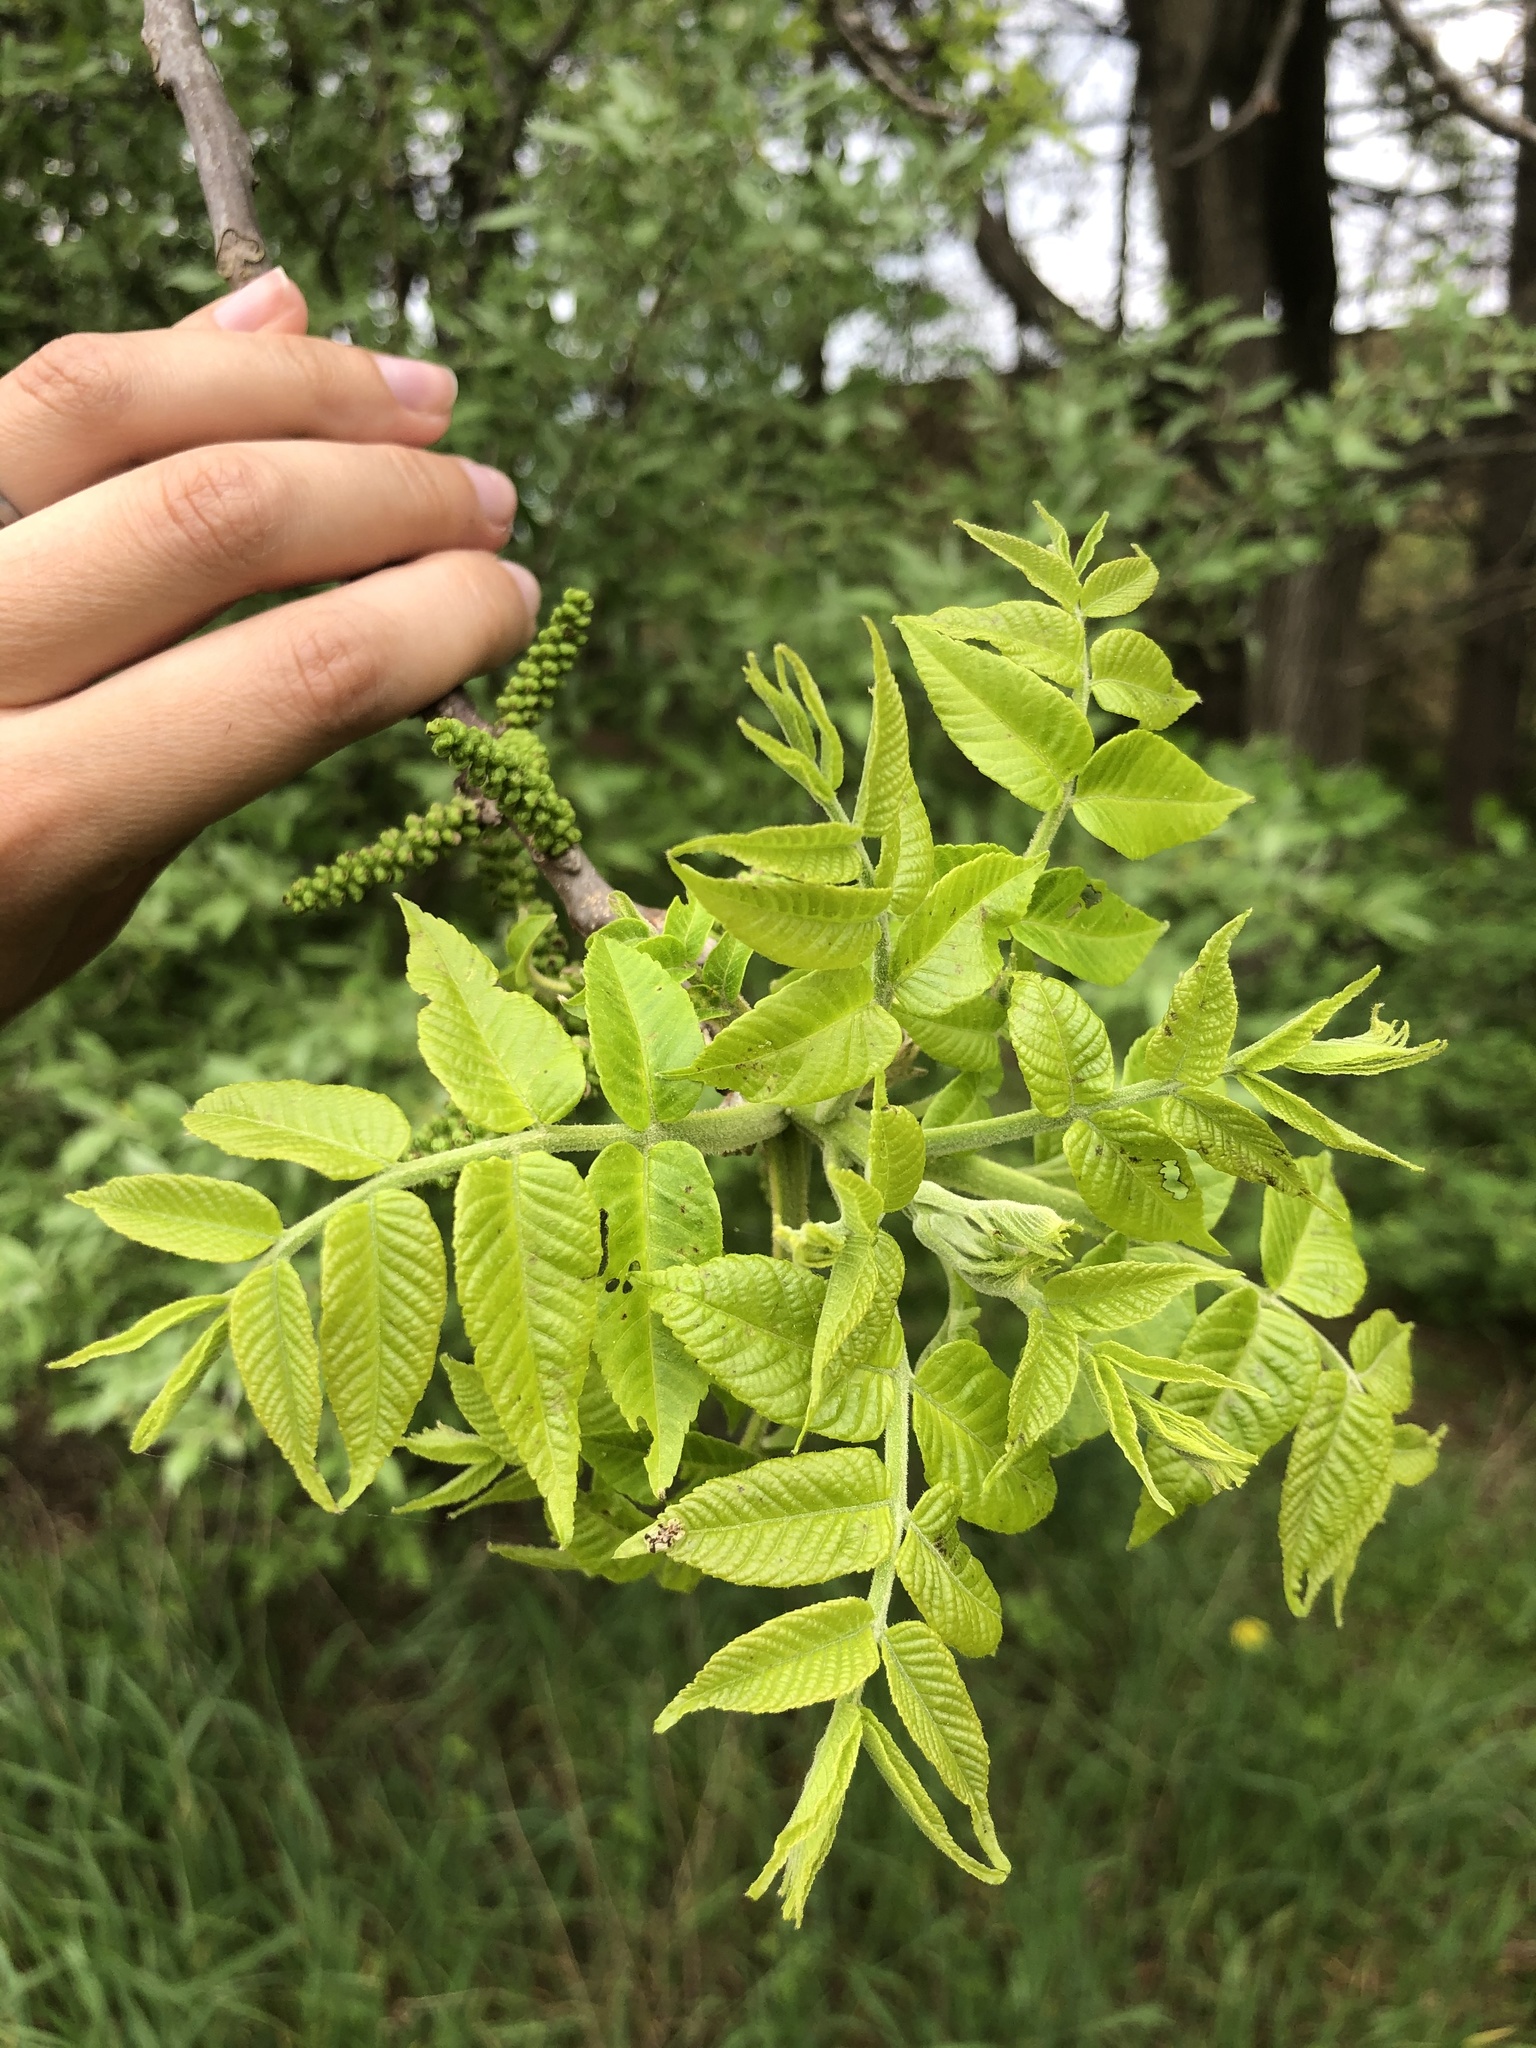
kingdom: Plantae
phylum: Tracheophyta
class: Magnoliopsida
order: Fagales
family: Juglandaceae
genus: Juglans
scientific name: Juglans nigra
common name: Black walnut
